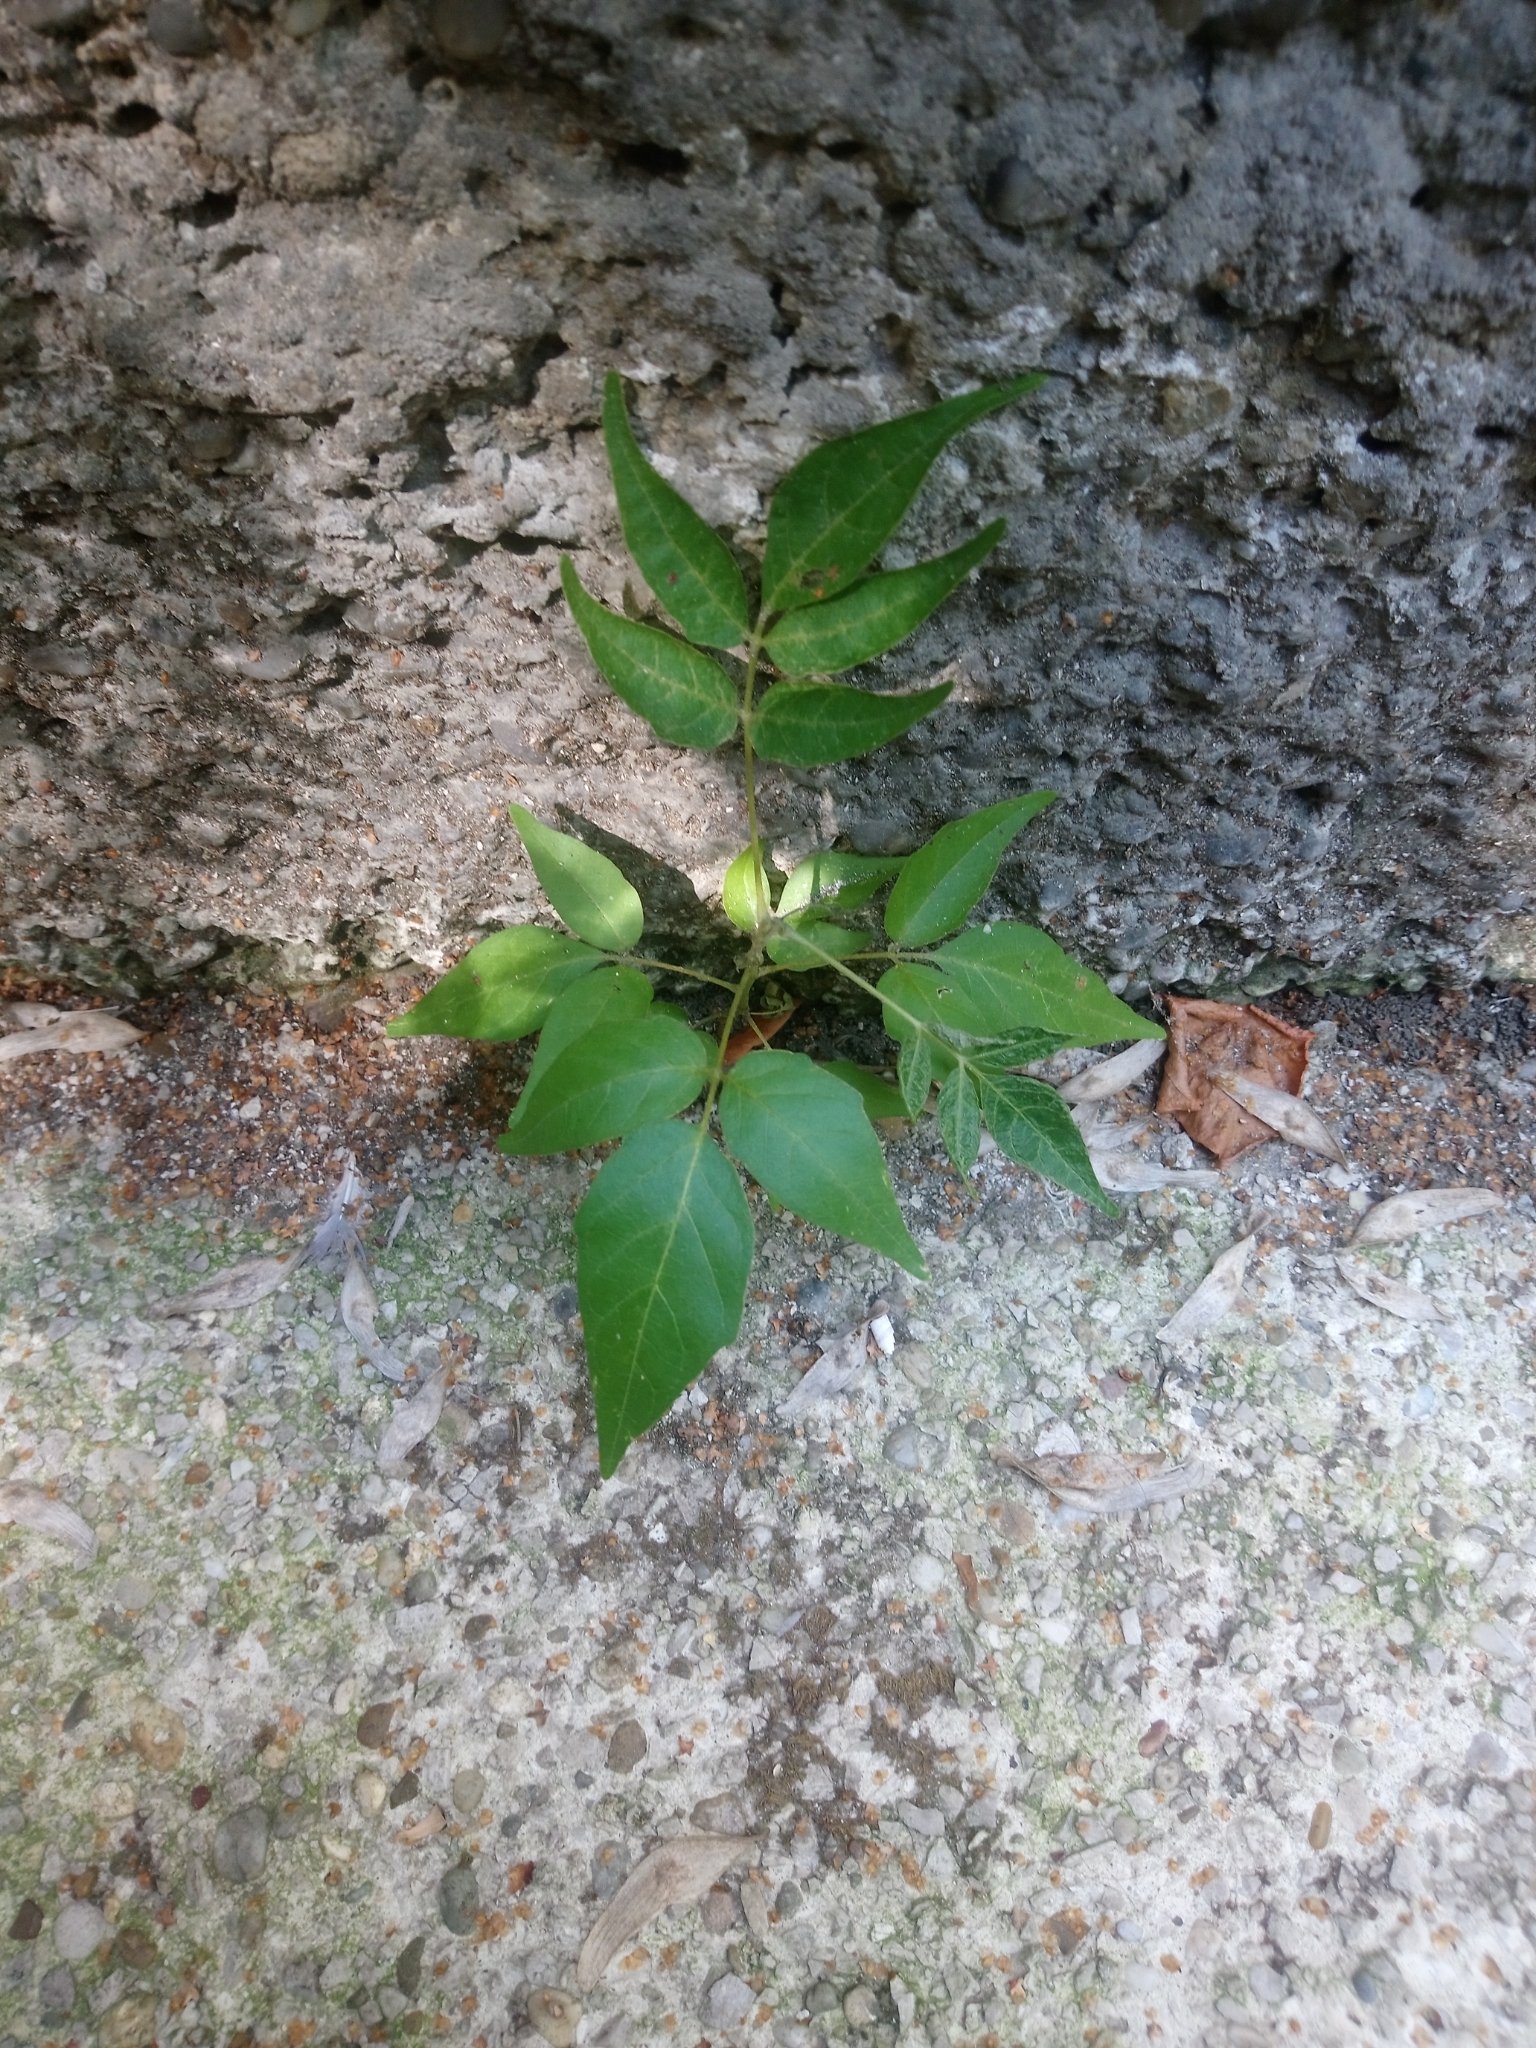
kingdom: Plantae
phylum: Tracheophyta
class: Magnoliopsida
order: Sapindales
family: Simaroubaceae
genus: Ailanthus
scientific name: Ailanthus altissima
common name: Tree-of-heaven
